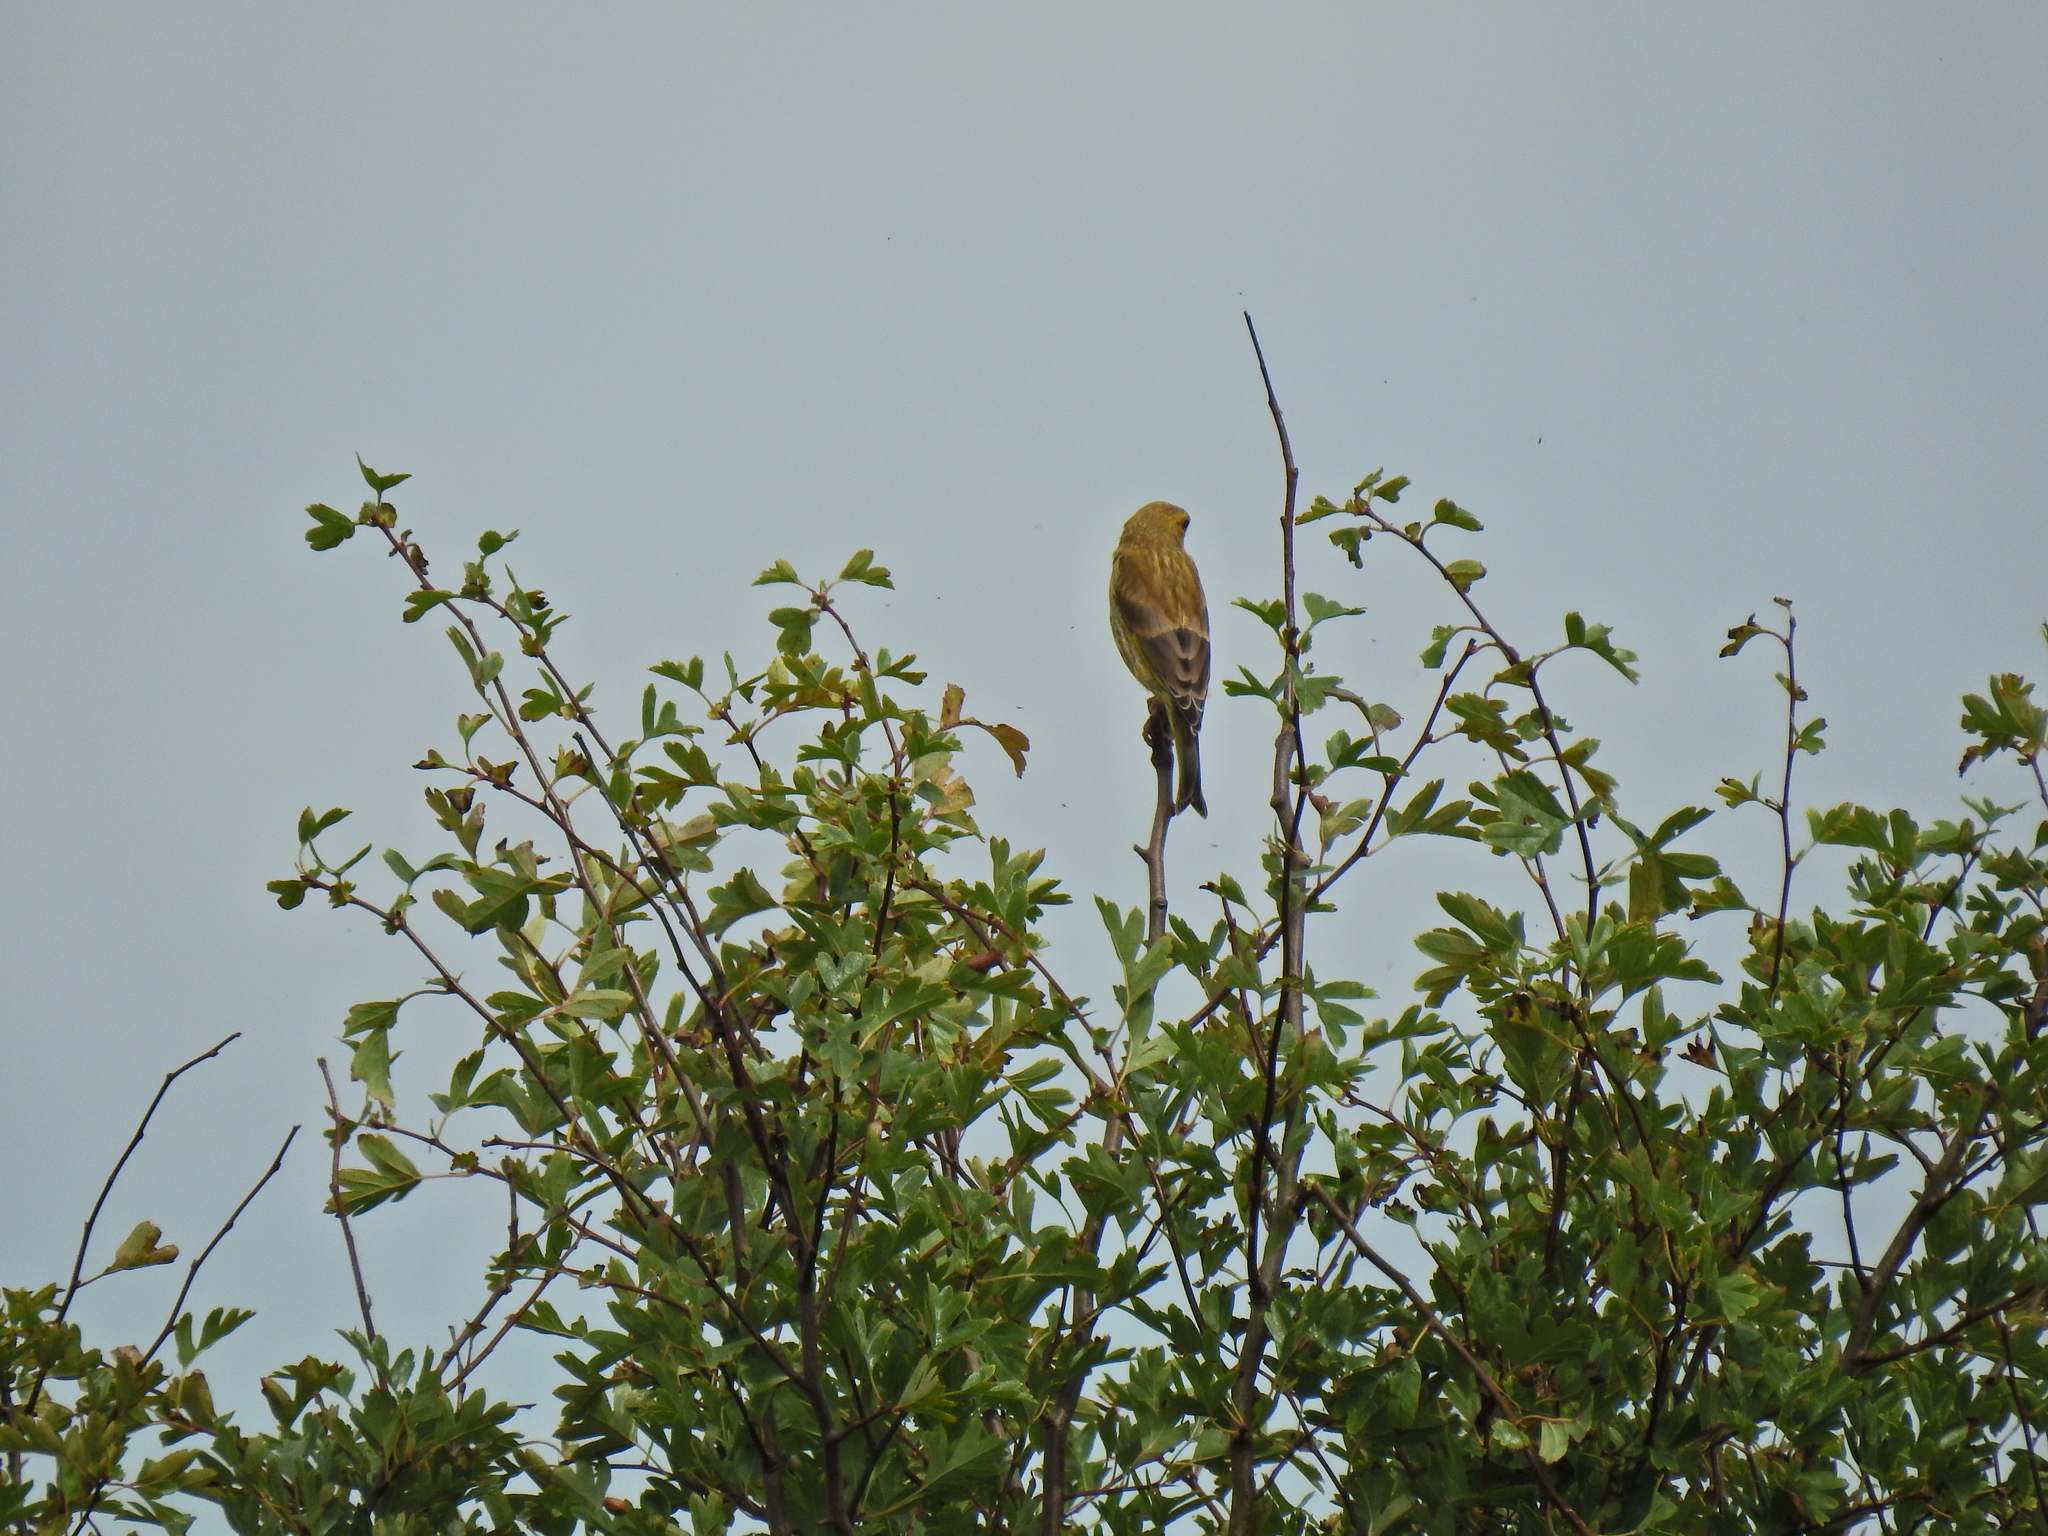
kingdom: Plantae
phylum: Tracheophyta
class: Liliopsida
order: Poales
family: Poaceae
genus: Chloris
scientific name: Chloris chloris
